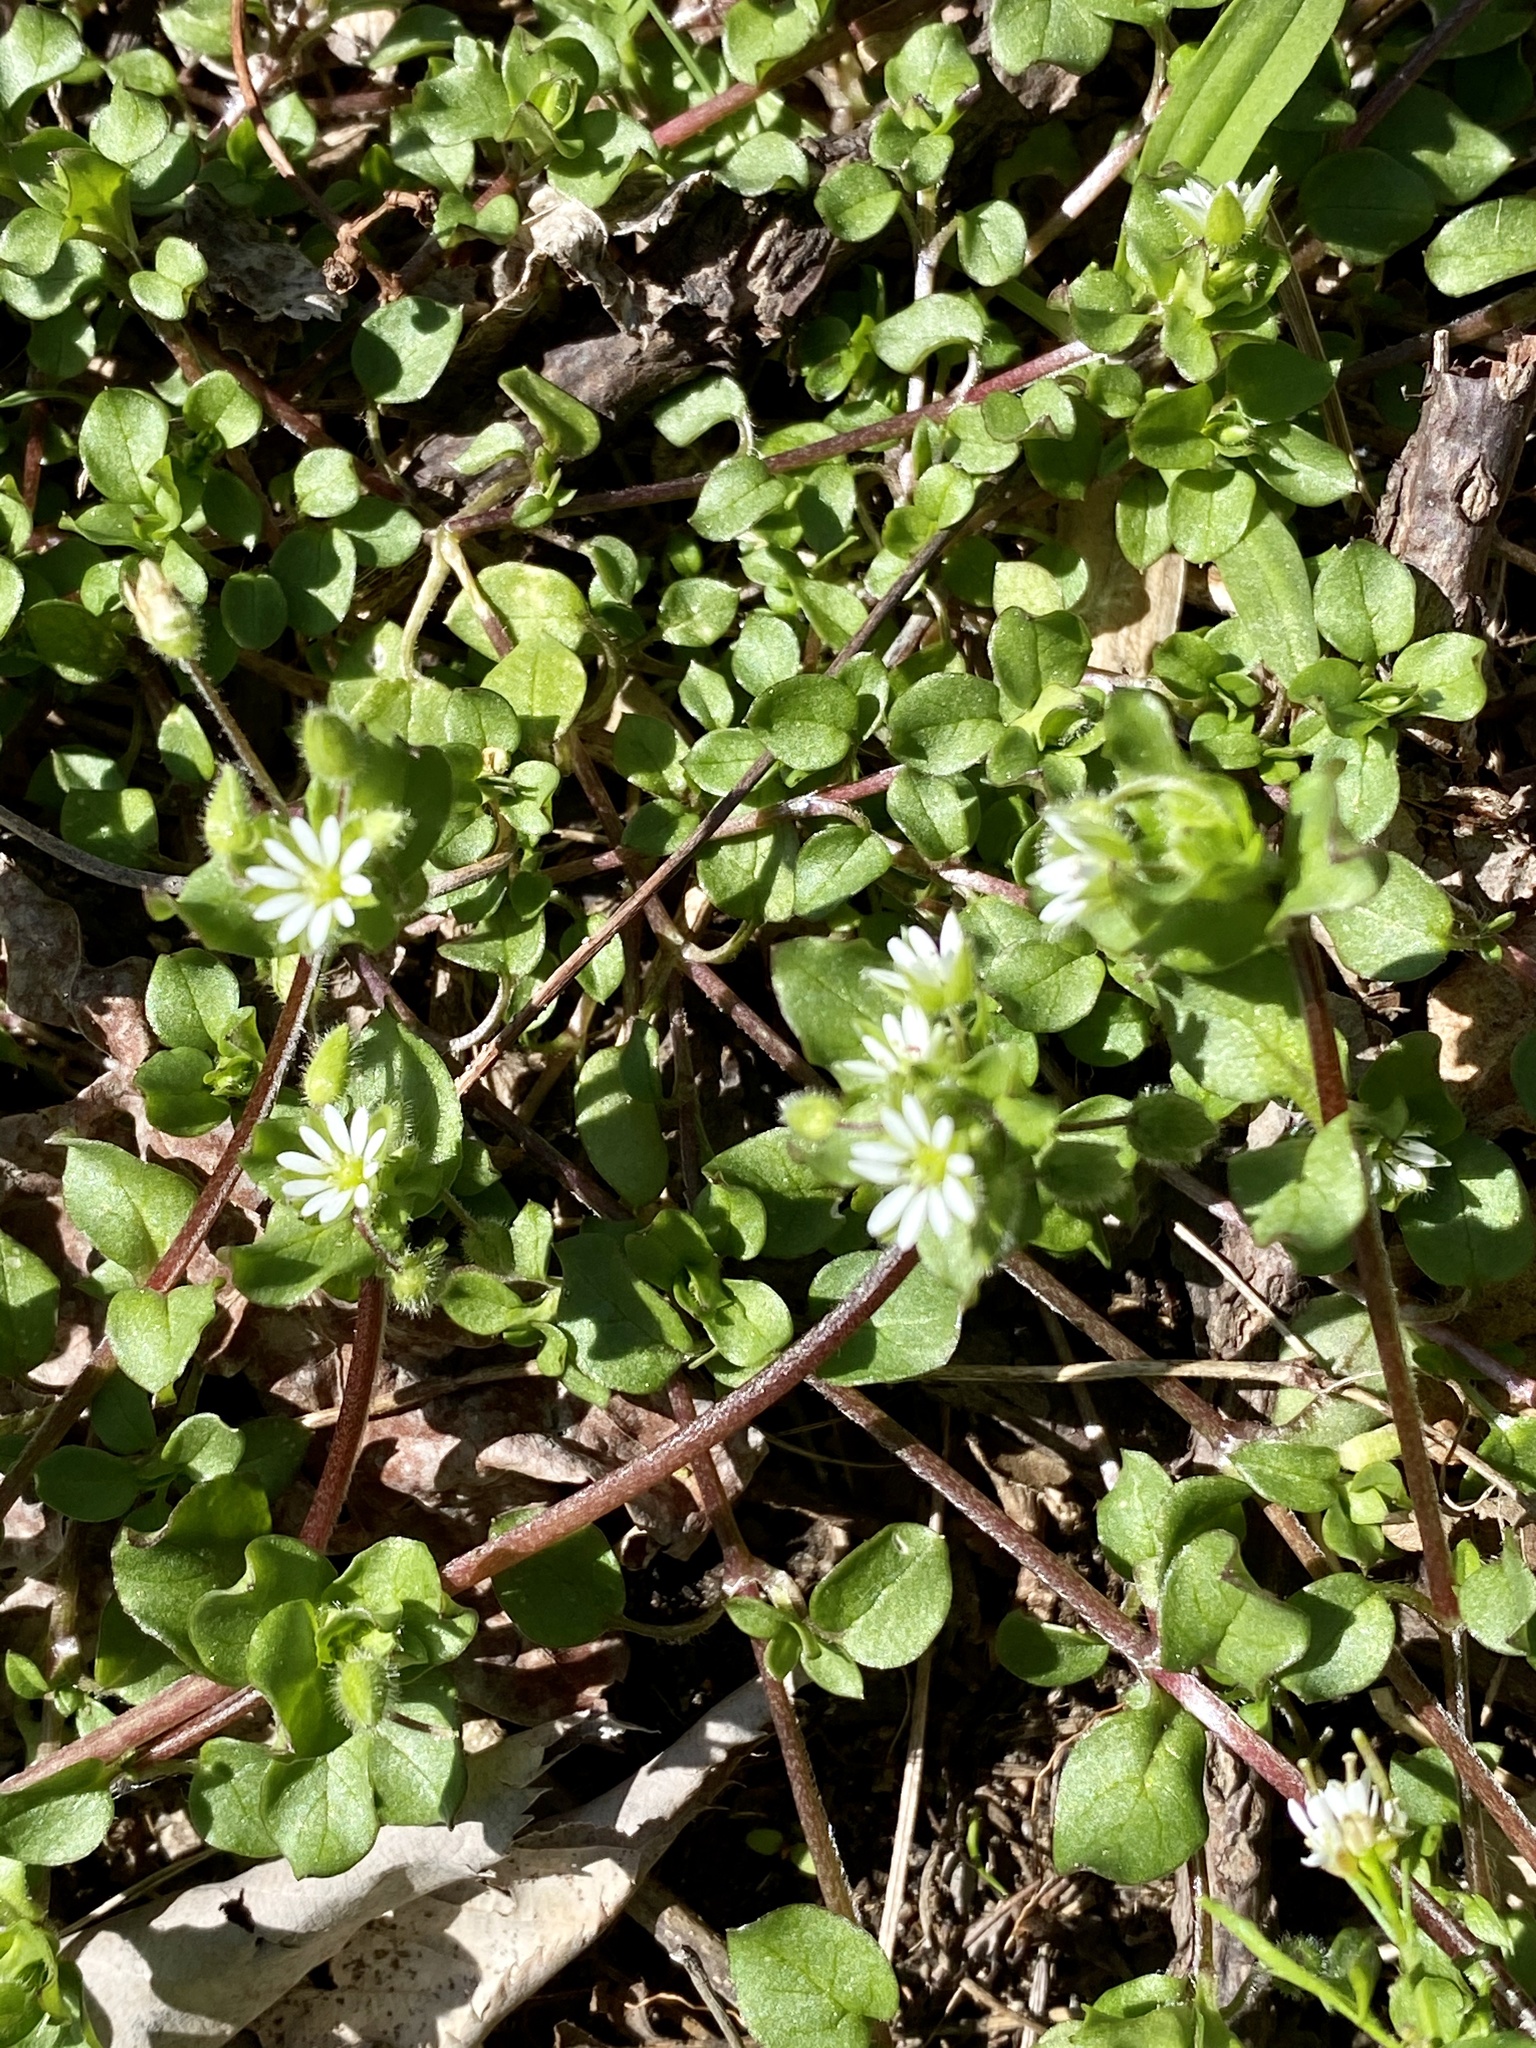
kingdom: Plantae
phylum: Tracheophyta
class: Magnoliopsida
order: Caryophyllales
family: Caryophyllaceae
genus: Stellaria
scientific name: Stellaria media
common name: Common chickweed
